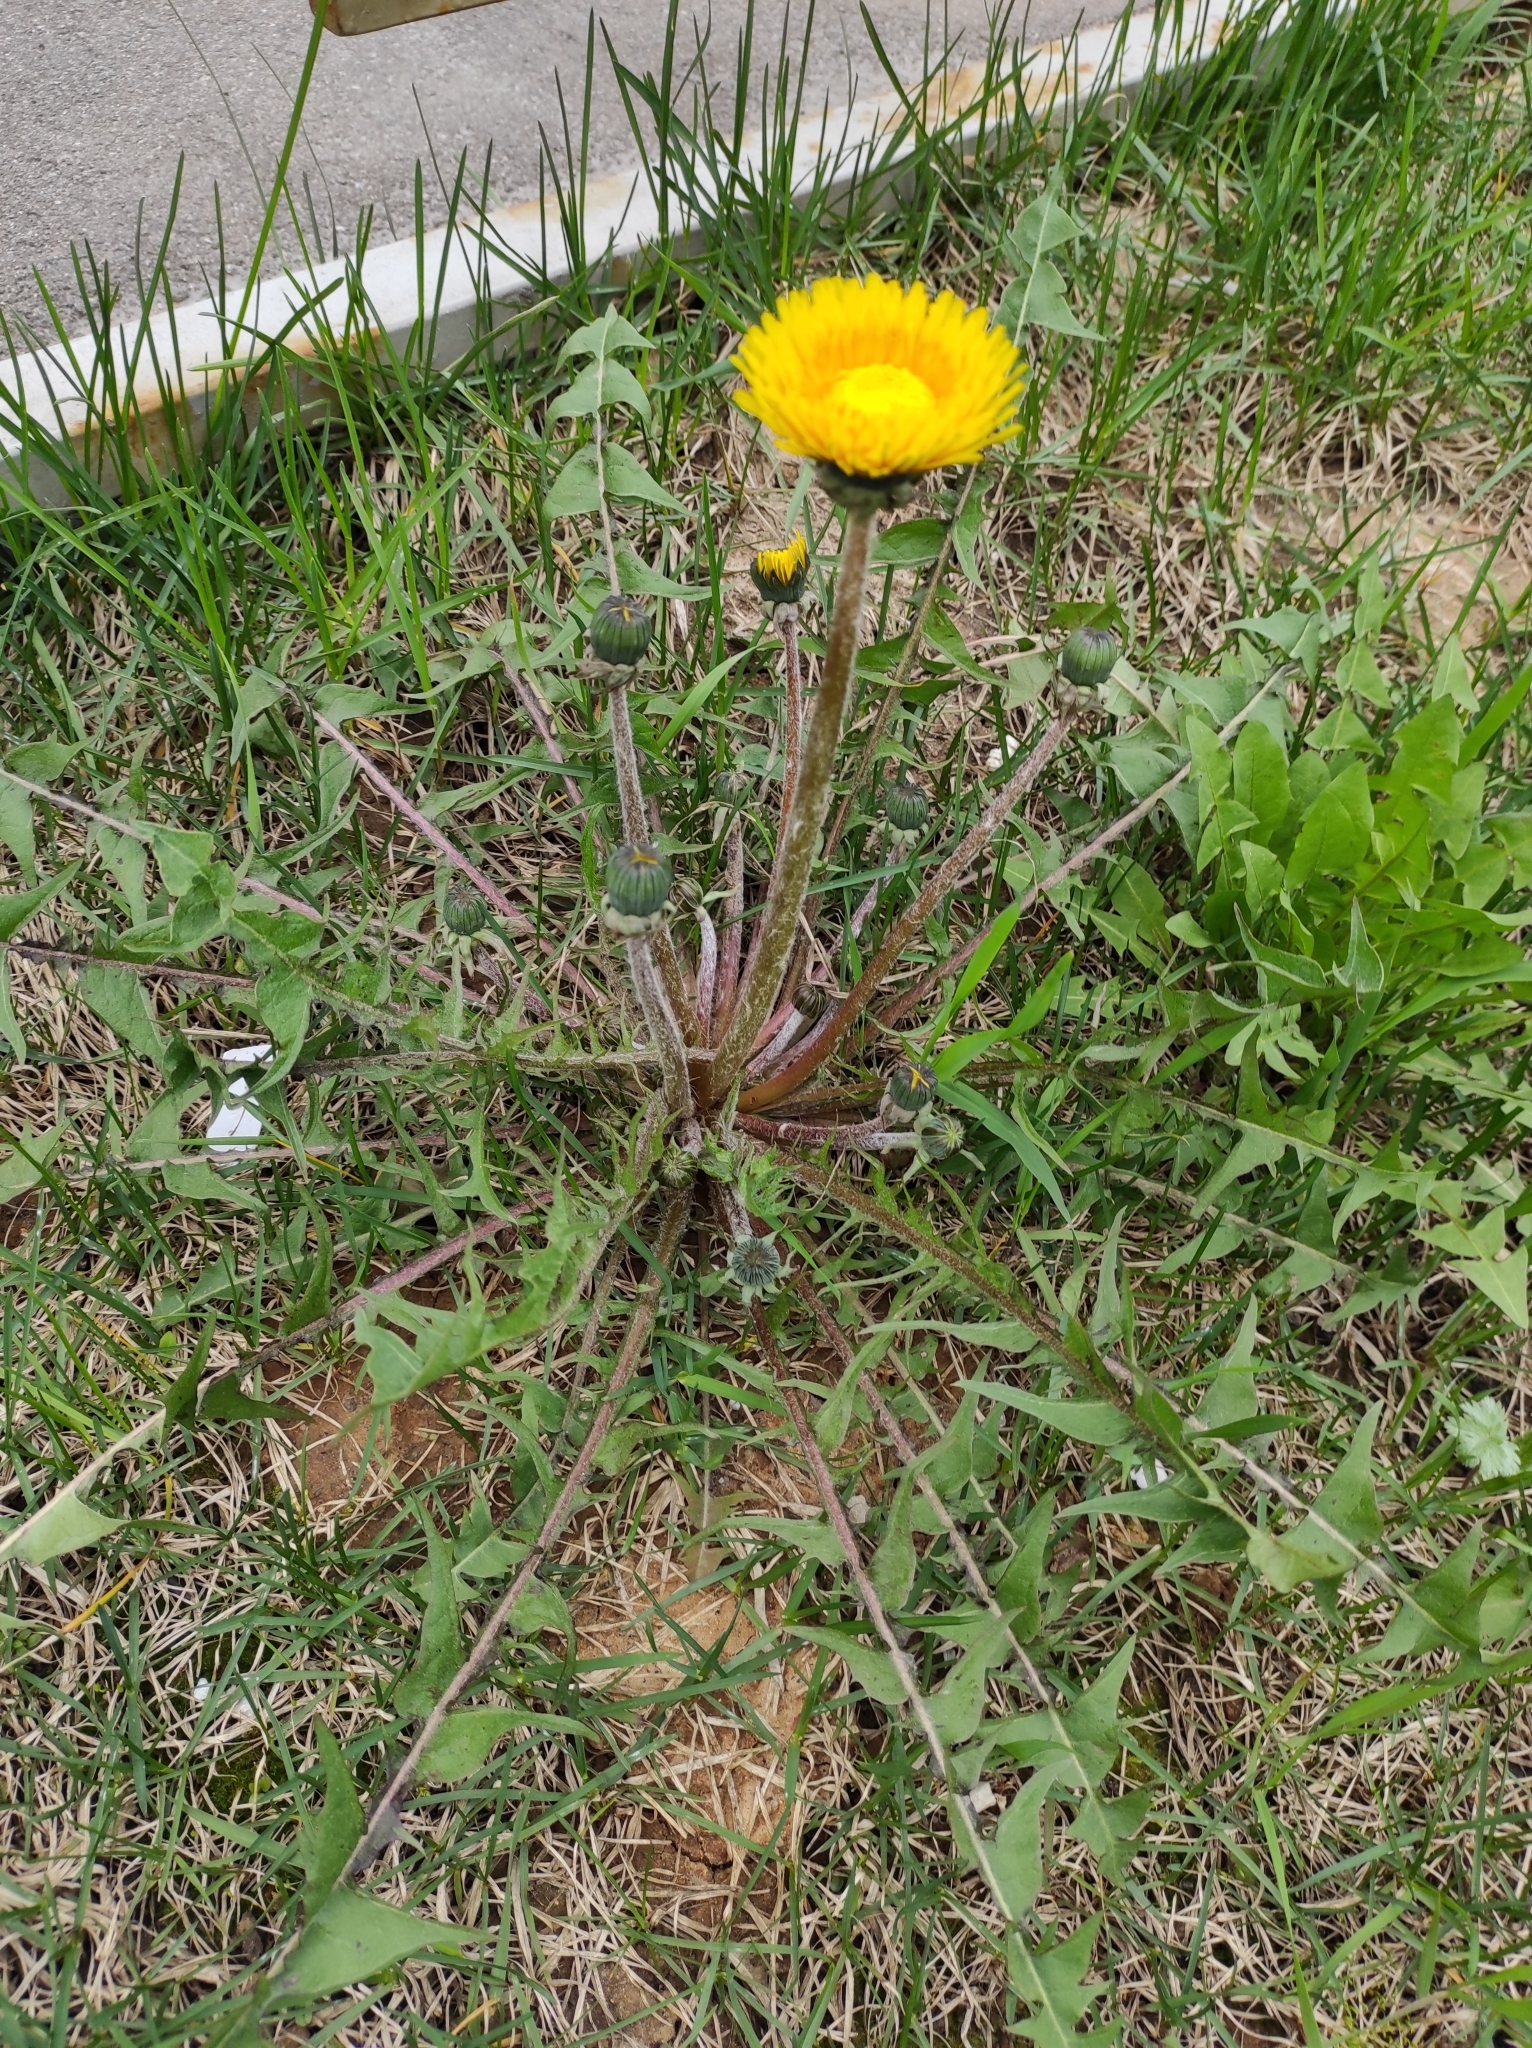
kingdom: Plantae
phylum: Tracheophyta
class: Magnoliopsida
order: Asterales
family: Asteraceae
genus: Taraxacum
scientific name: Taraxacum officinale
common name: Common dandelion
